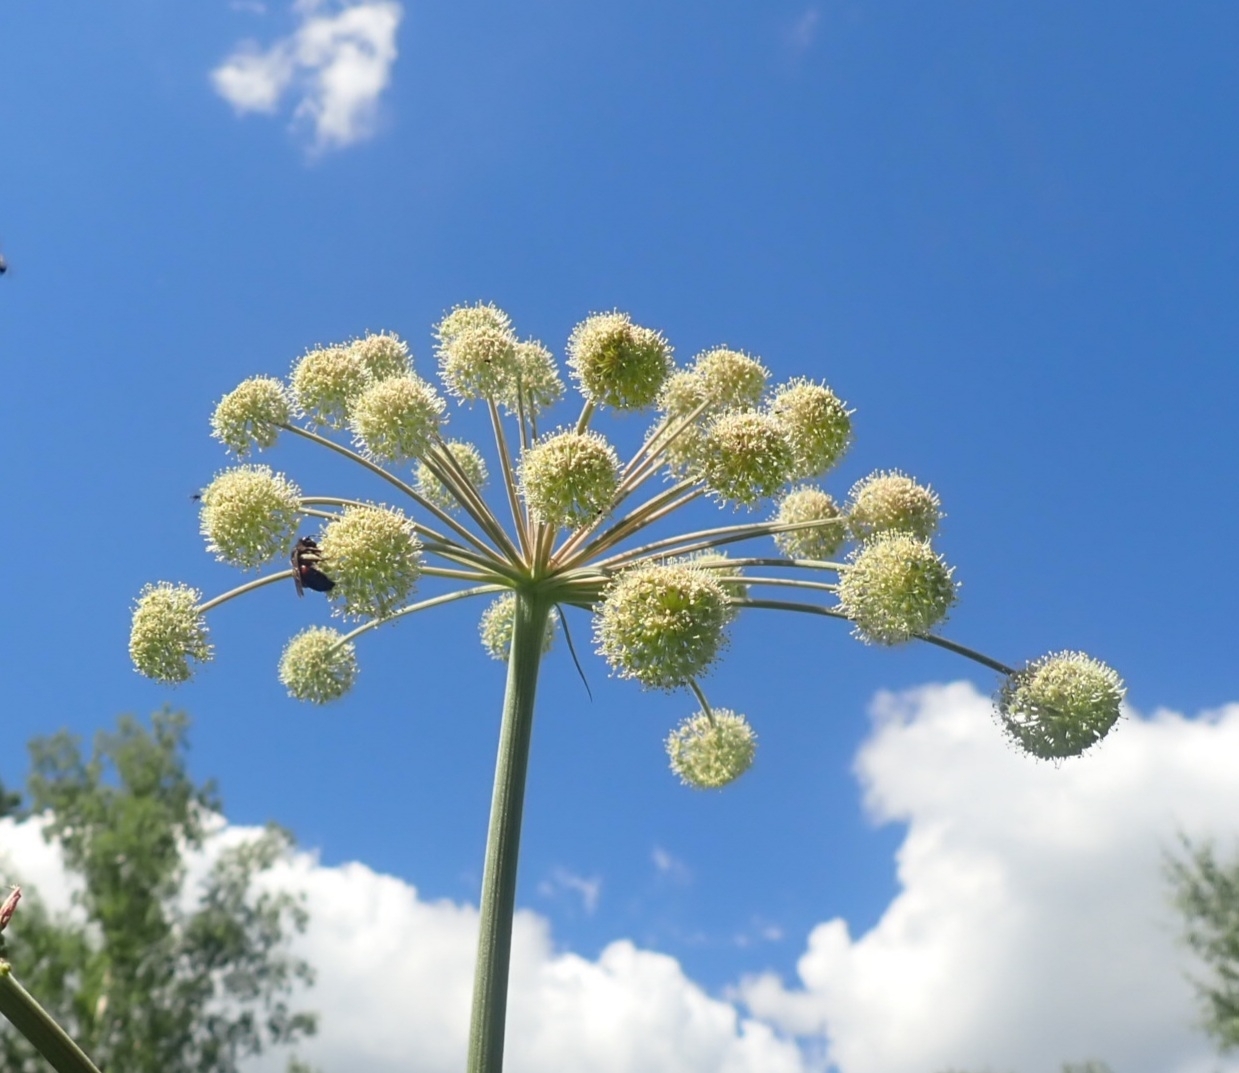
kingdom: Plantae
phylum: Tracheophyta
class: Magnoliopsida
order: Apiales
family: Apiaceae
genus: Angelica
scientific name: Angelica sylvestris
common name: Wild angelica
